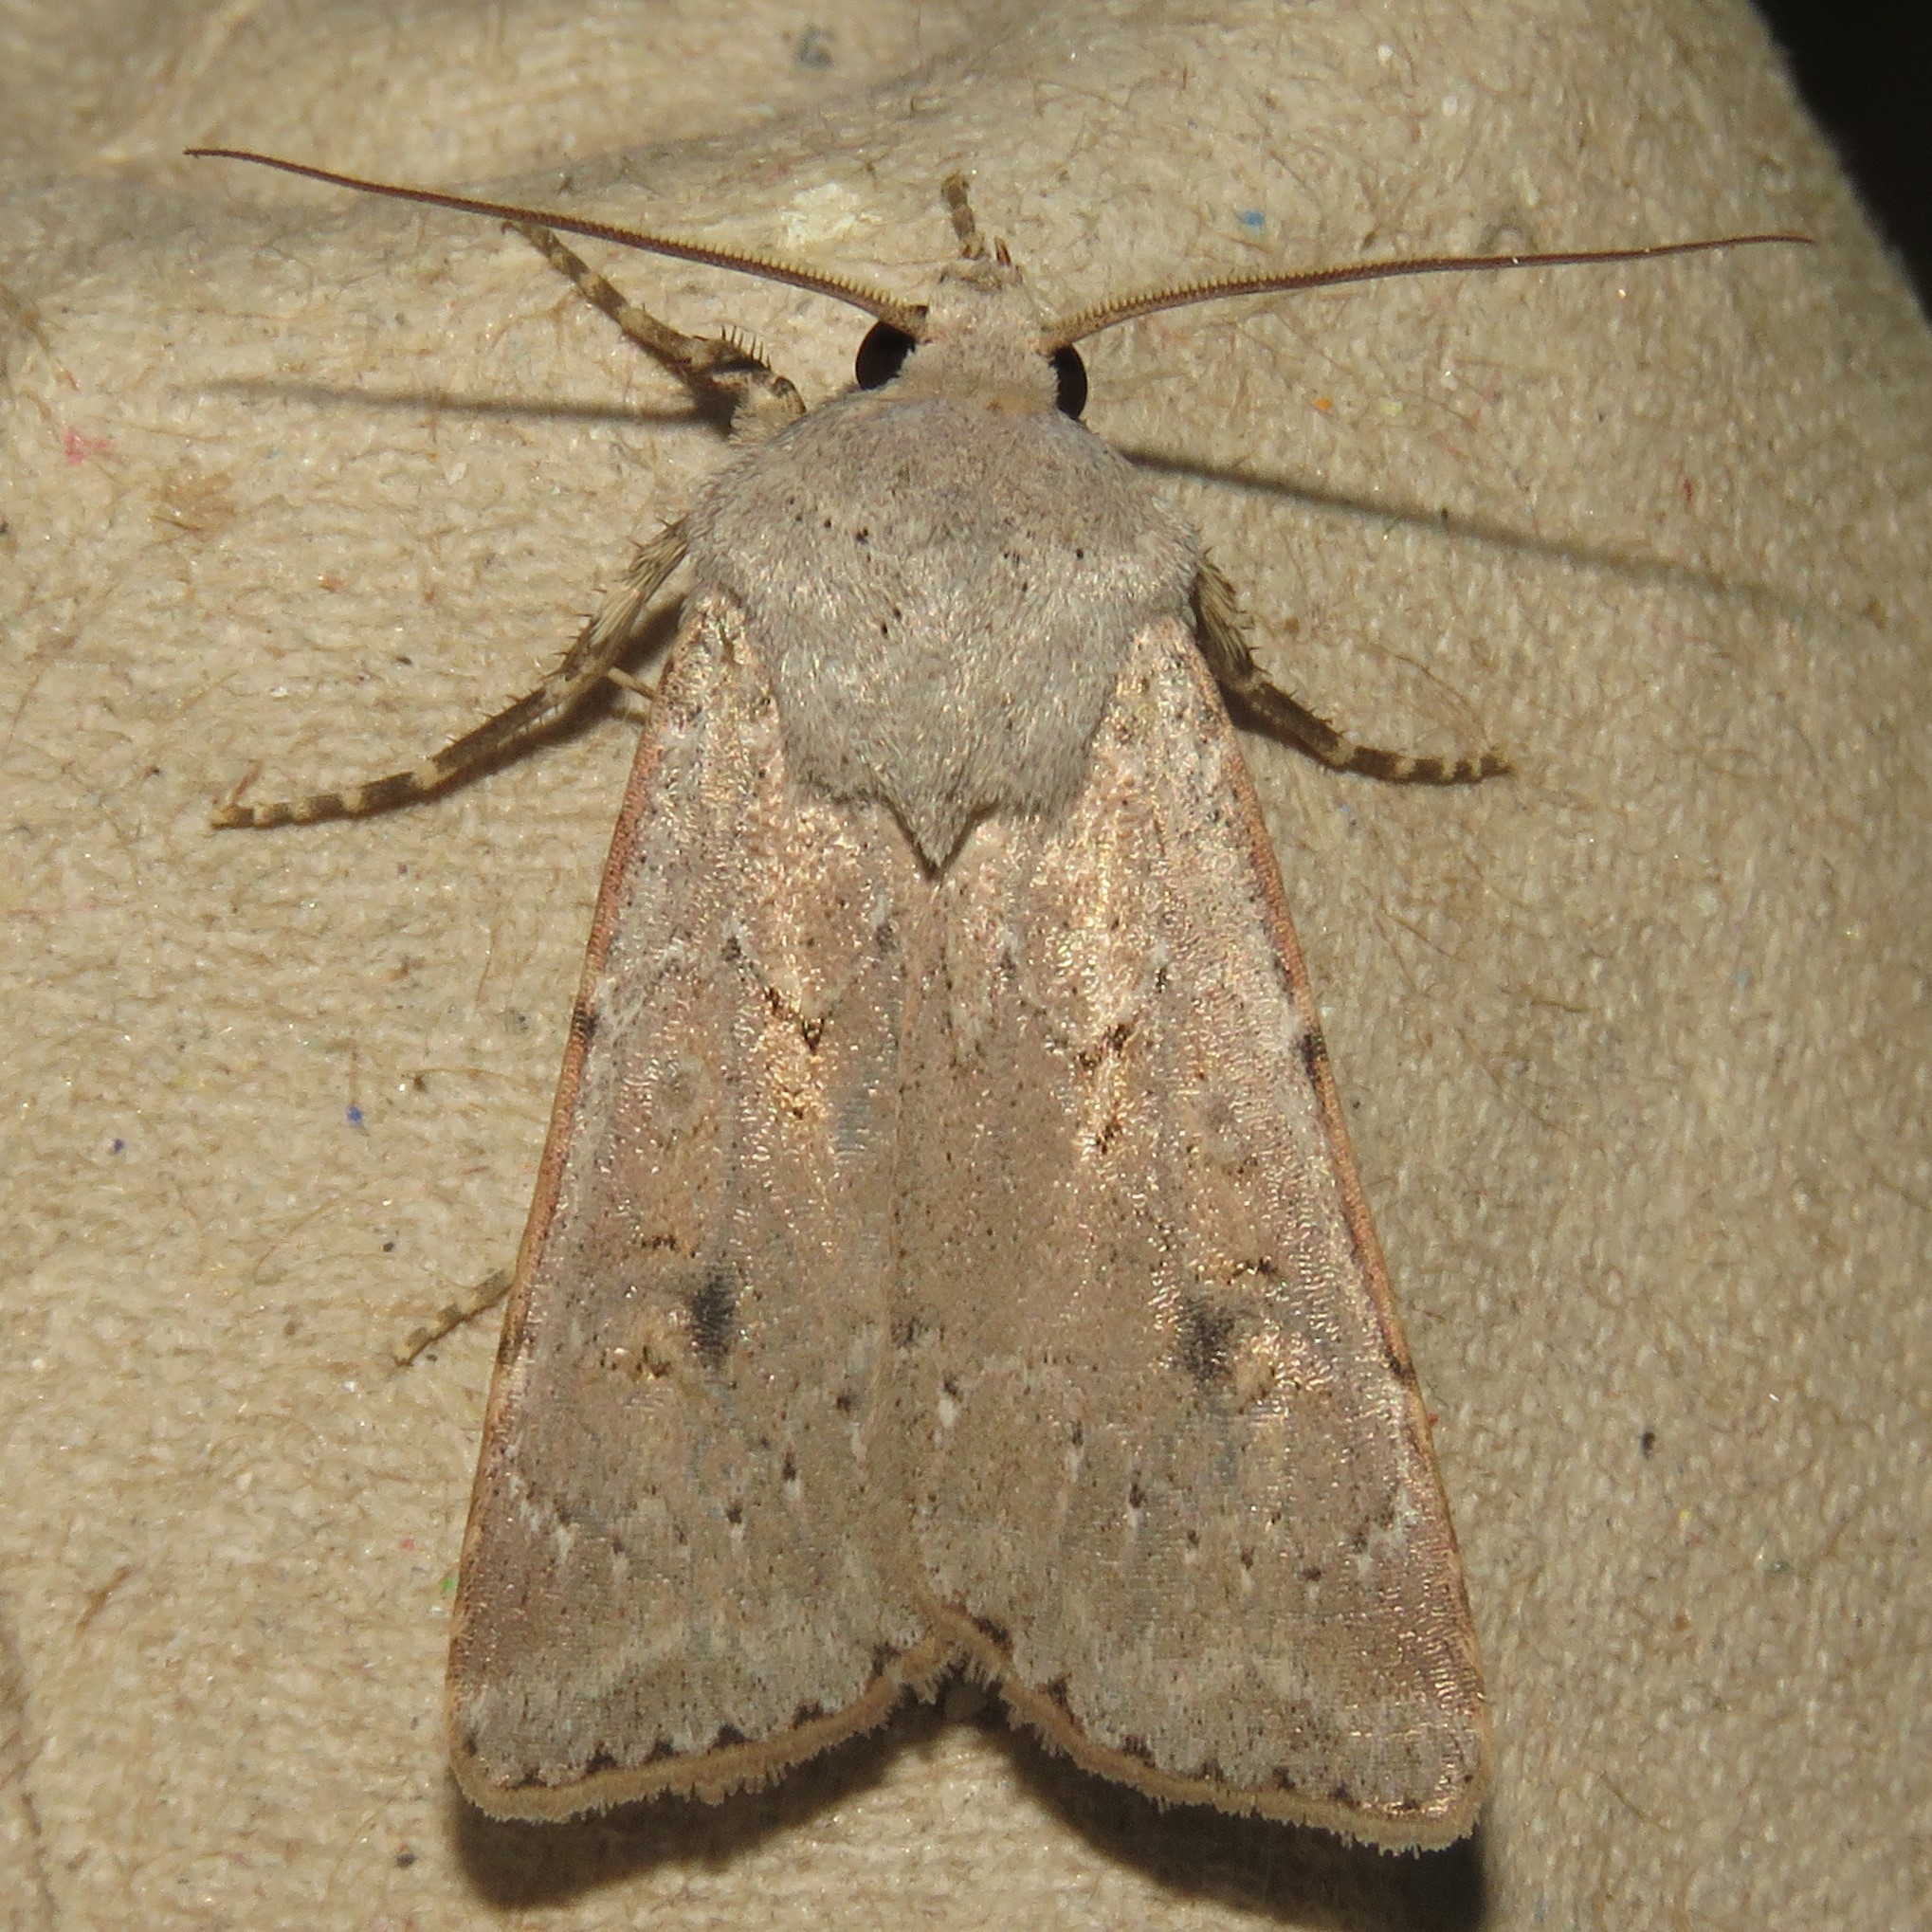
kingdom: Animalia
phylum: Arthropoda
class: Insecta
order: Lepidoptera
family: Noctuidae
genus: Agrotis
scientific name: Agrotis vetusta
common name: Old man dart
